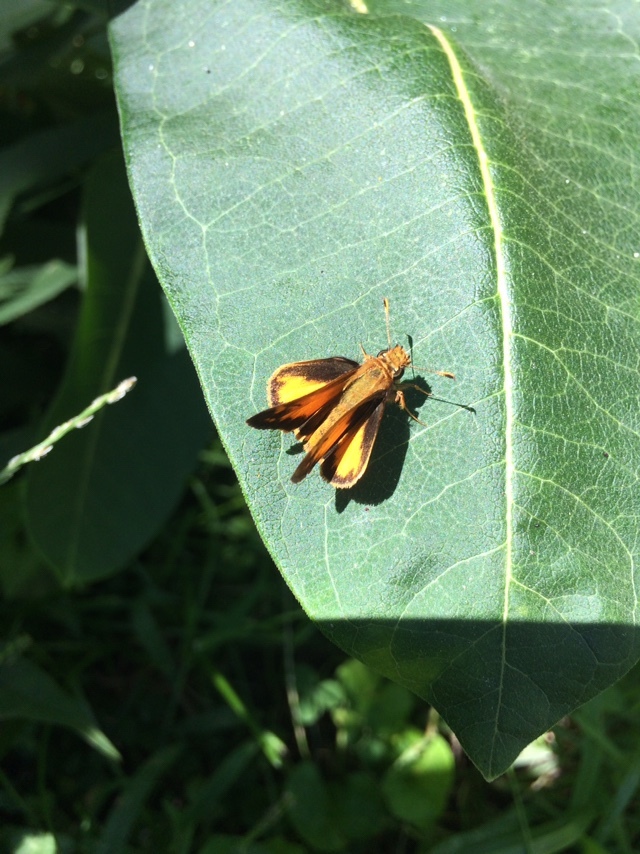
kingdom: Animalia
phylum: Arthropoda
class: Insecta
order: Lepidoptera
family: Hesperiidae
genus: Lon
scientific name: Lon zabulon
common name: Zabulon skipper
